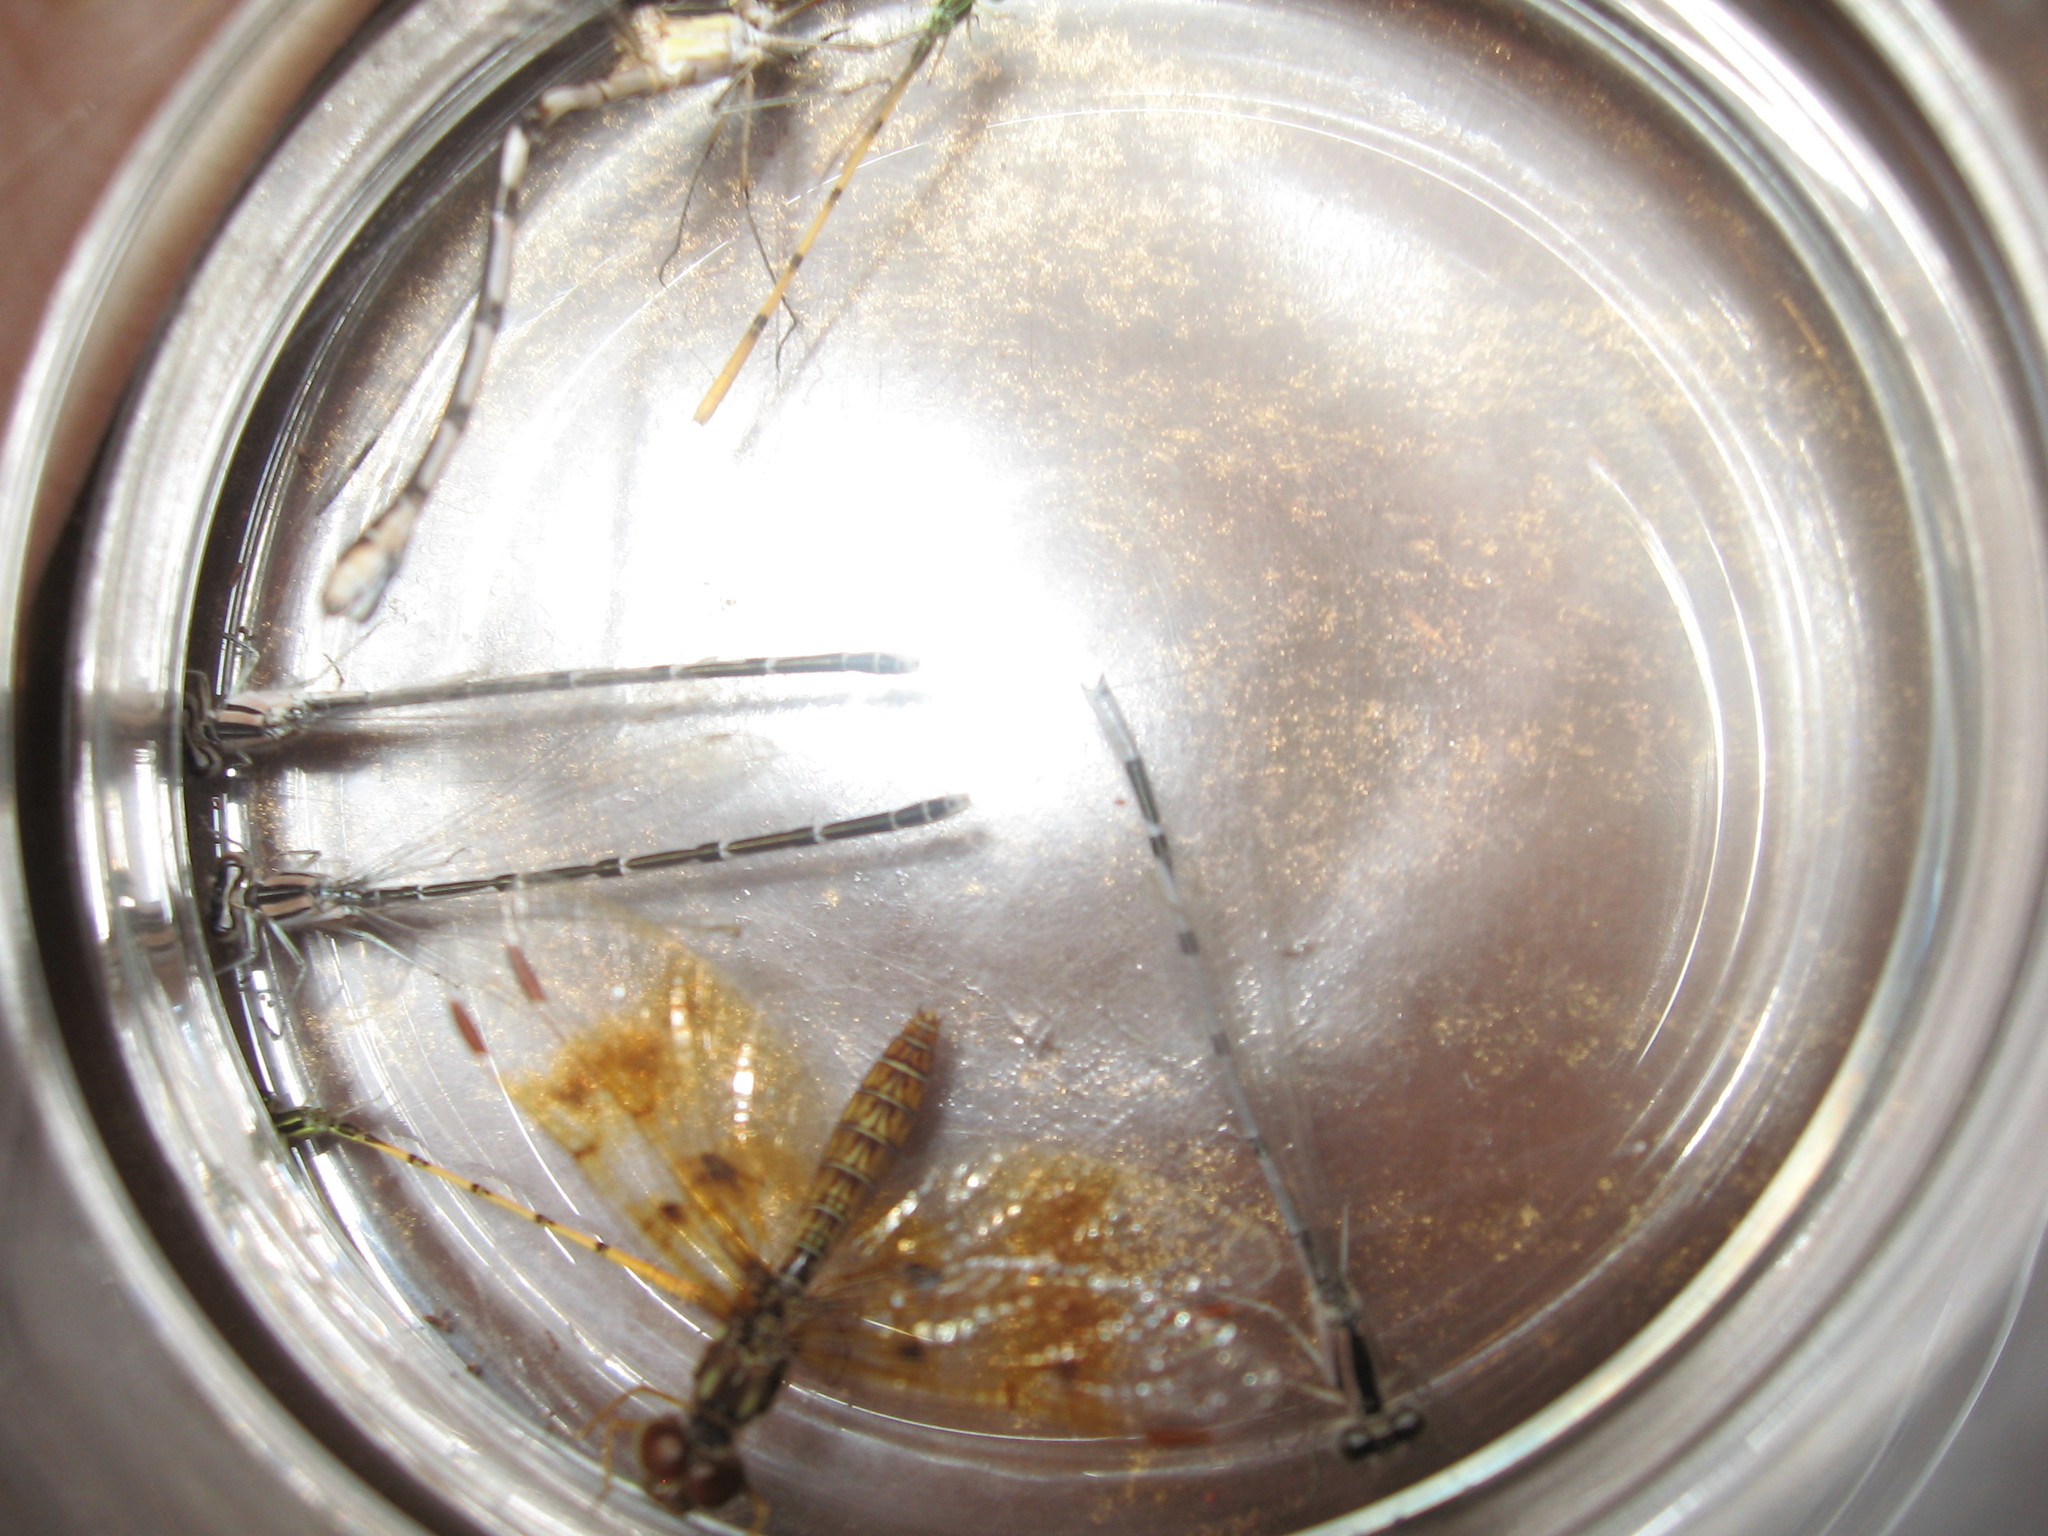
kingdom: Animalia
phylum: Arthropoda
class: Insecta
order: Odonata
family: Coenagrionidae
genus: Ischnura
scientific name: Ischnura hastata
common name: Citrine forktail
